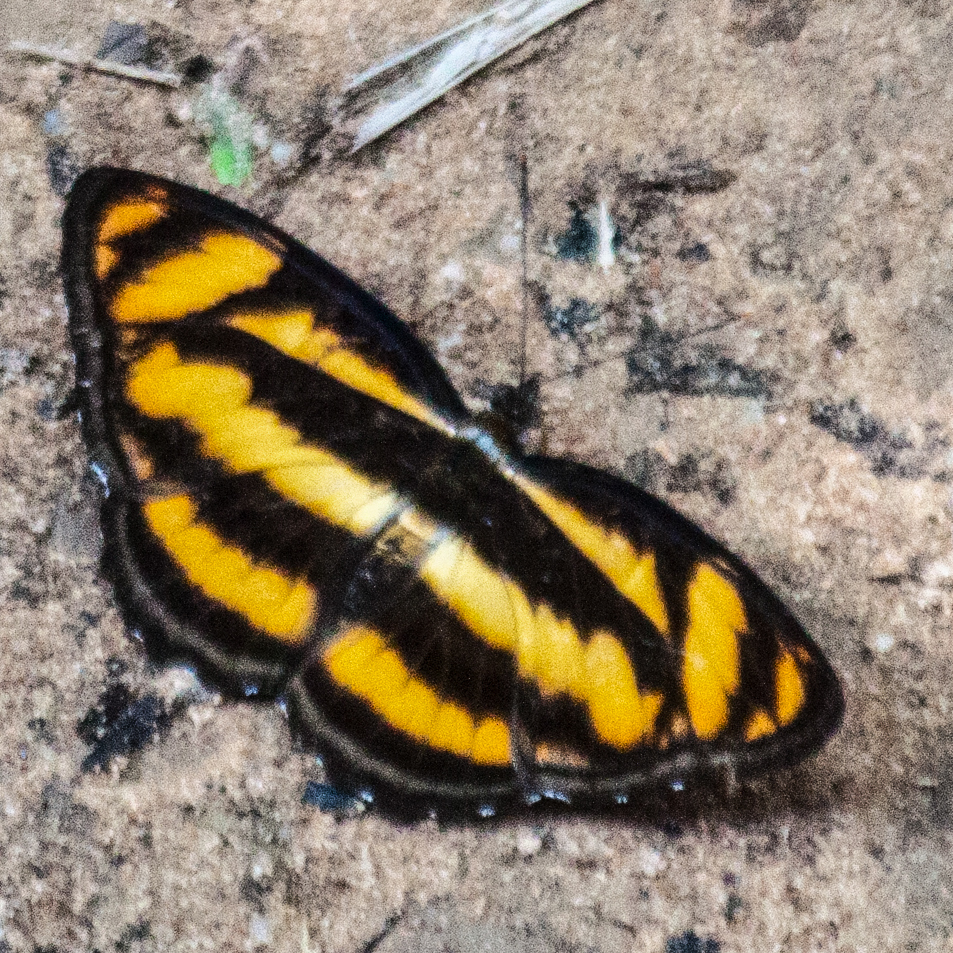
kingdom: Animalia
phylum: Arthropoda
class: Insecta
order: Lepidoptera
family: Nymphalidae
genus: Parathyma
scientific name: Parathyma nefte
